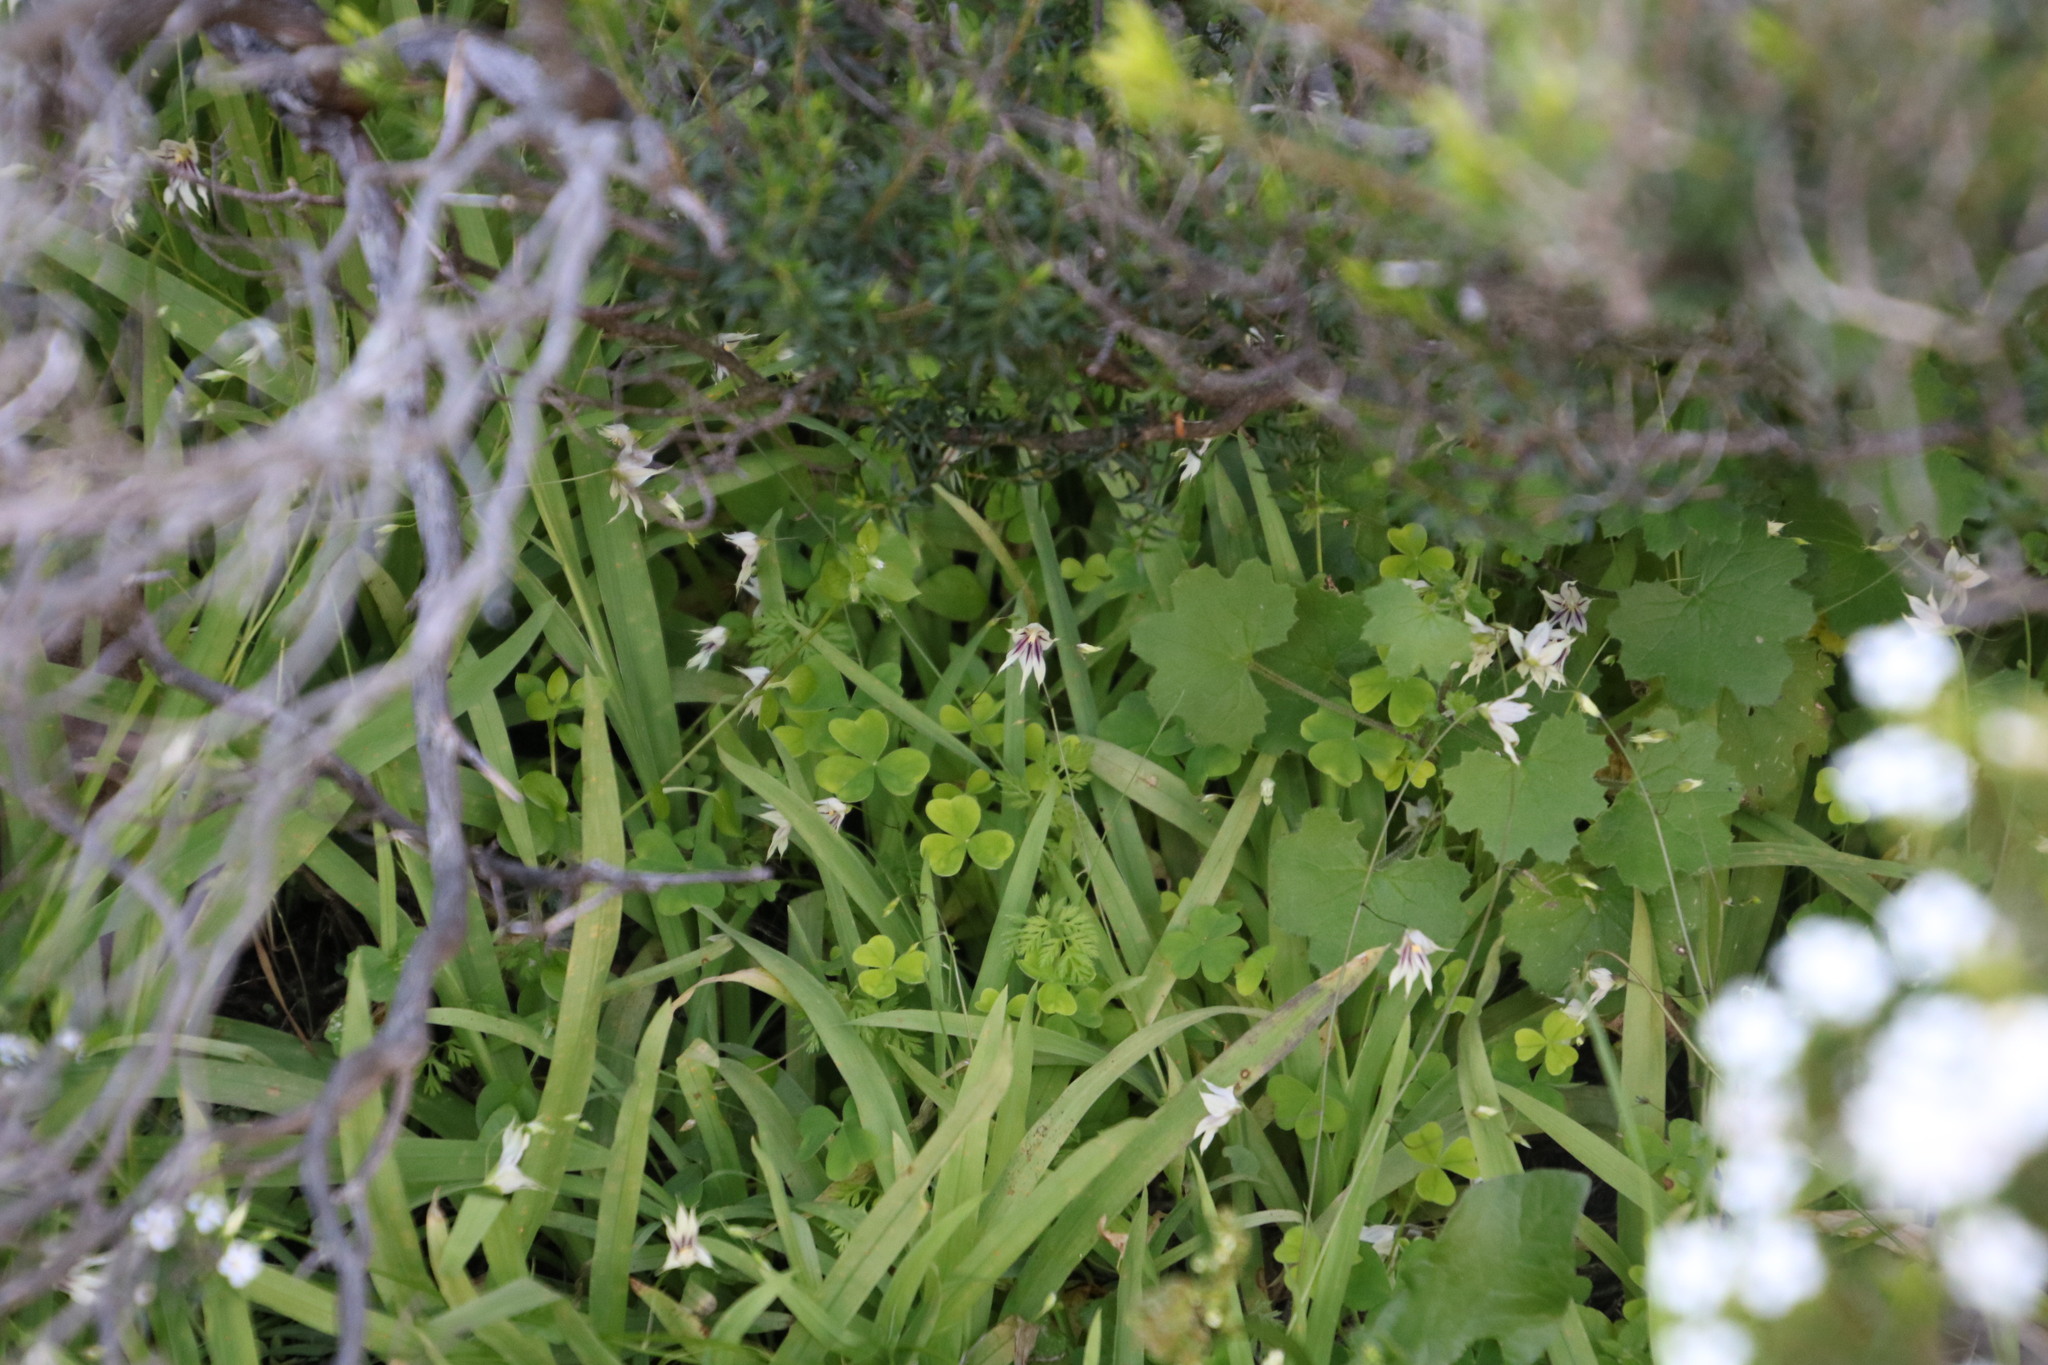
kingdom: Plantae
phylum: Tracheophyta
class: Liliopsida
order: Asparagales
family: Iridaceae
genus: Melasphaerula
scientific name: Melasphaerula graminea
